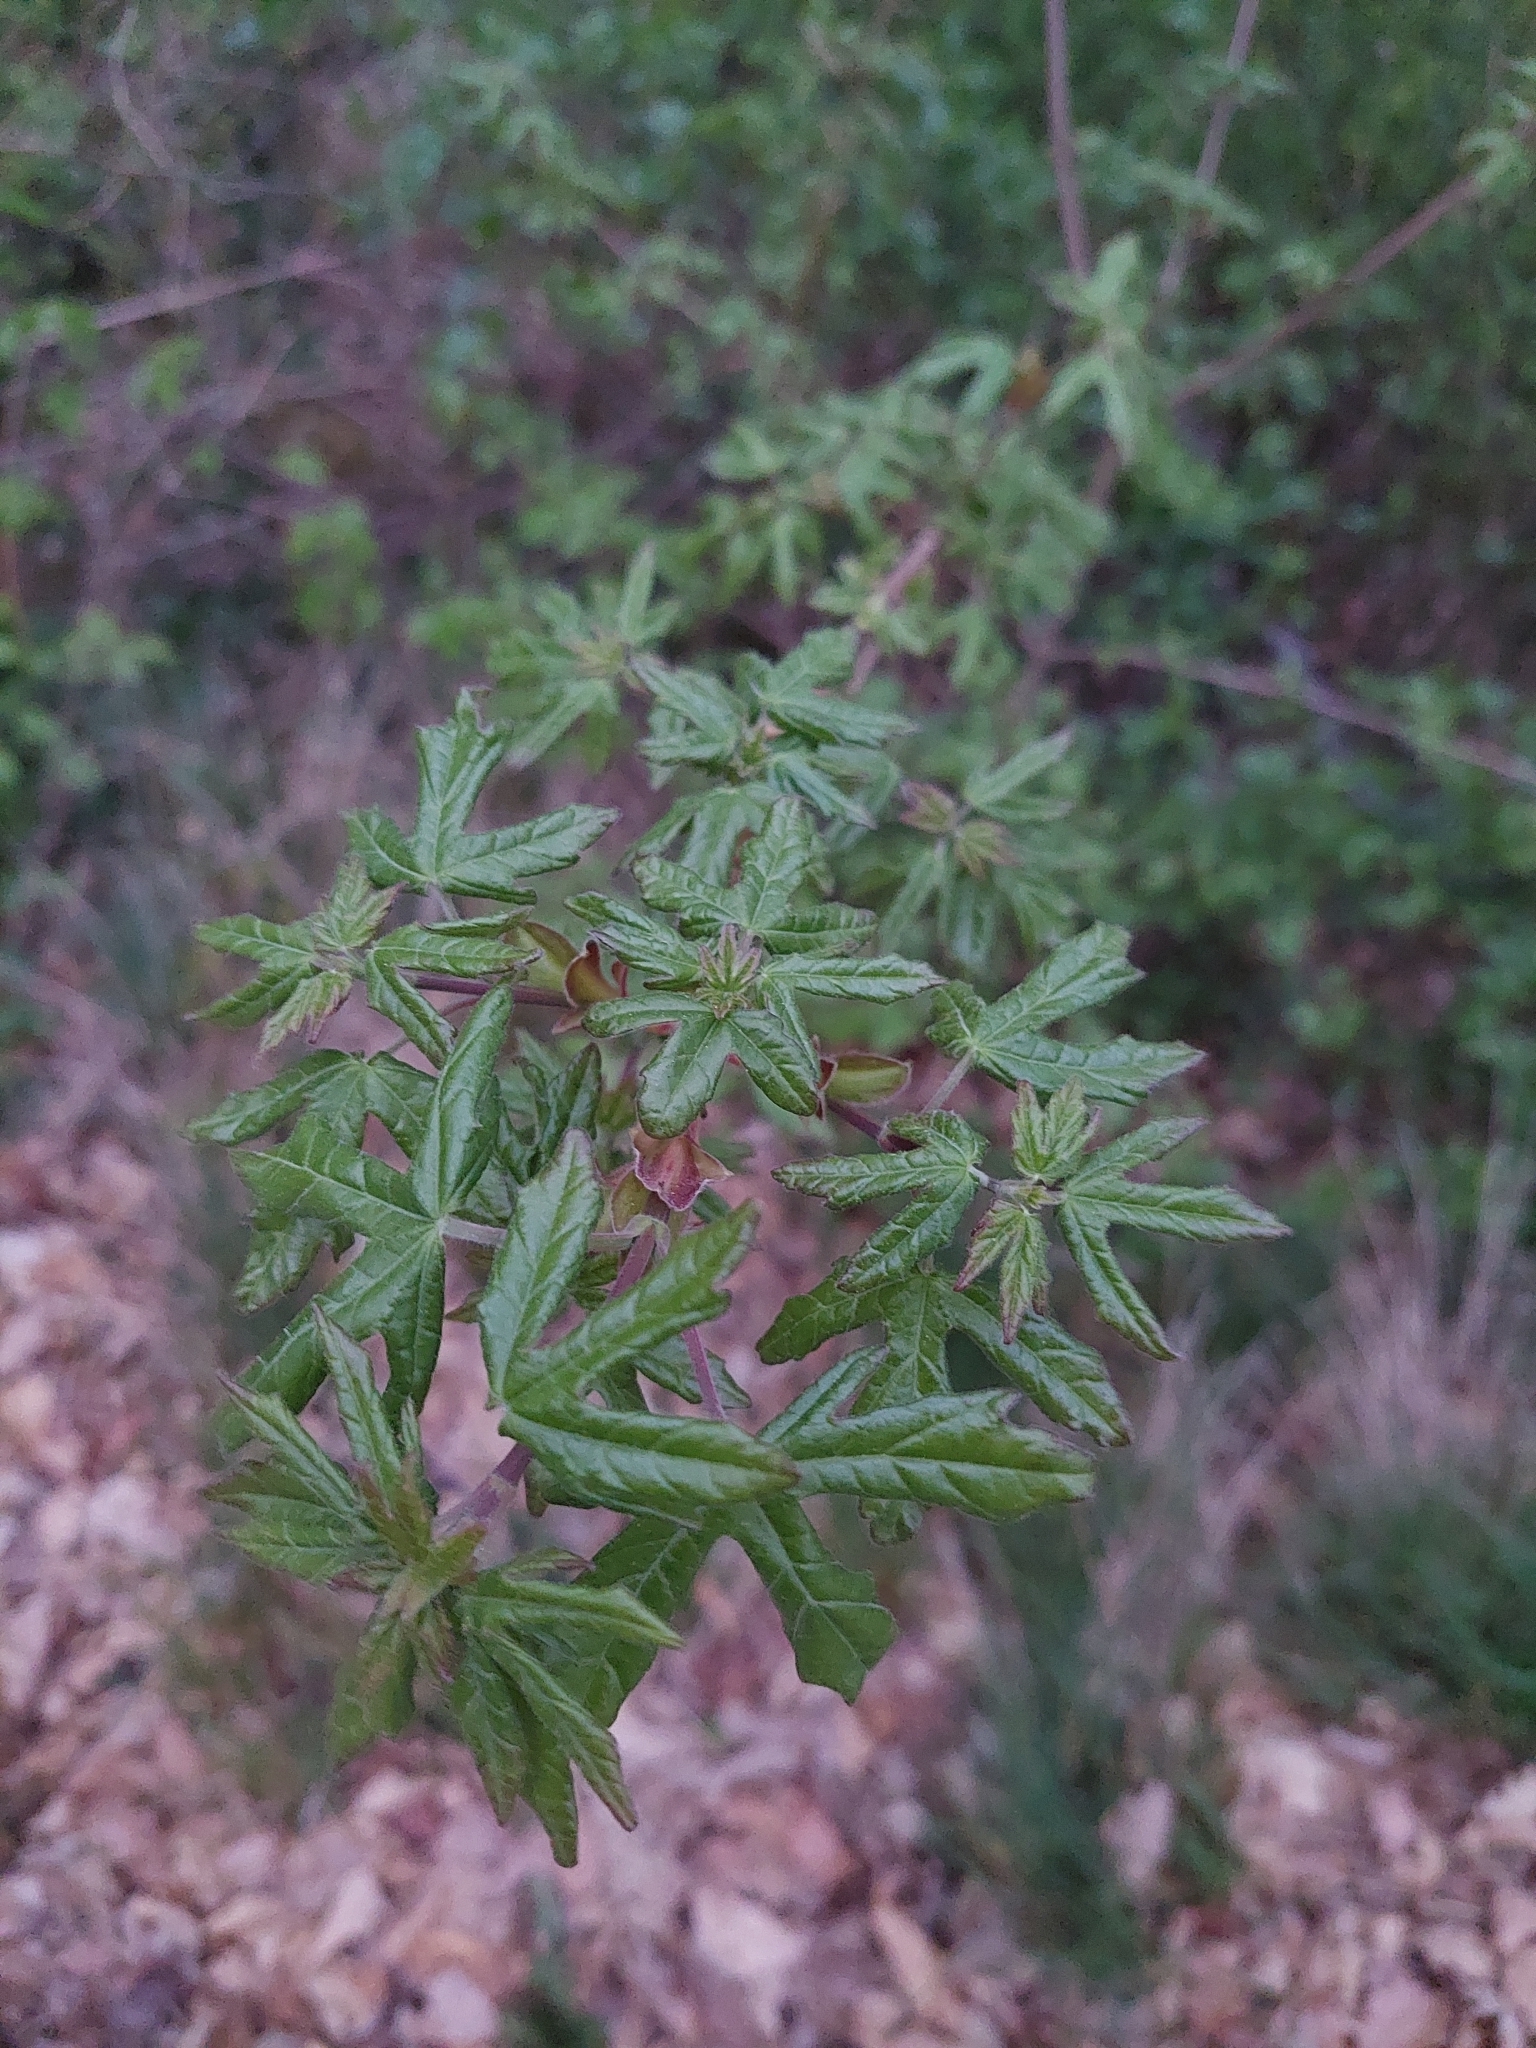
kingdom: Plantae
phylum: Tracheophyta
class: Magnoliopsida
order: Sapindales
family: Sapindaceae
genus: Acer
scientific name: Acer campestre
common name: Field maple
